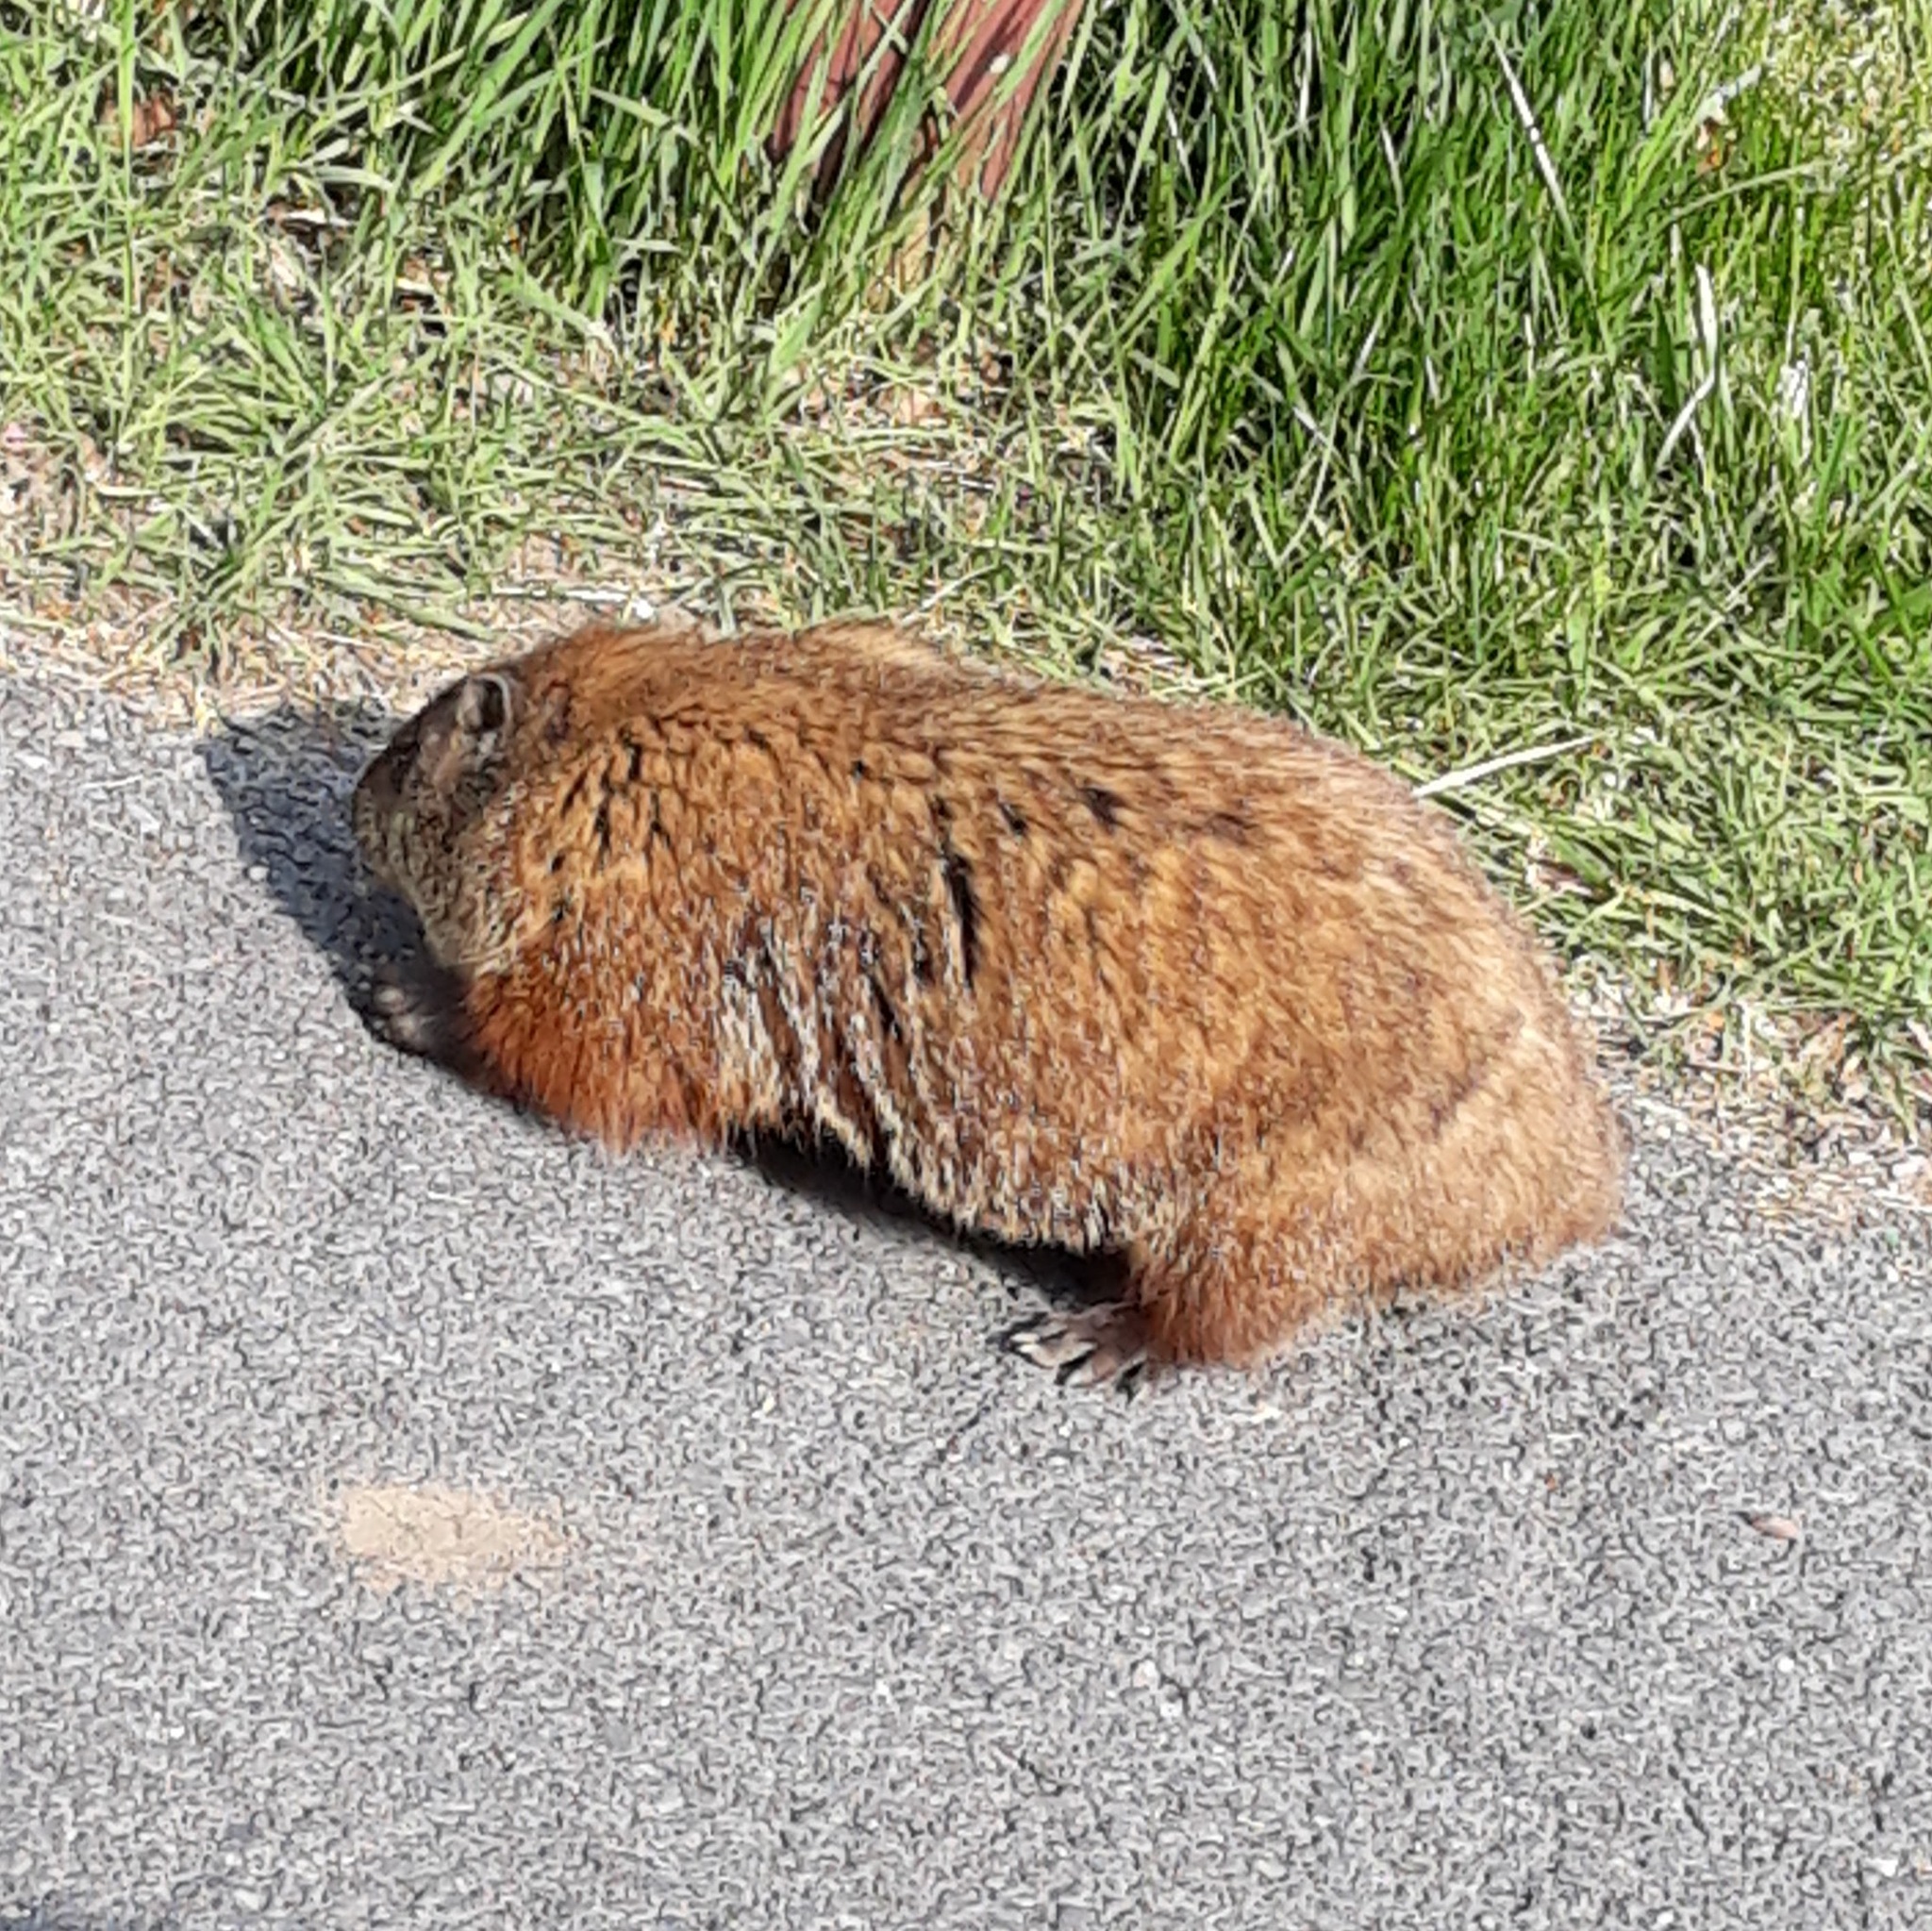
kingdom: Animalia
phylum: Chordata
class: Mammalia
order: Rodentia
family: Sciuridae
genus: Marmota
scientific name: Marmota monax
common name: Groundhog
